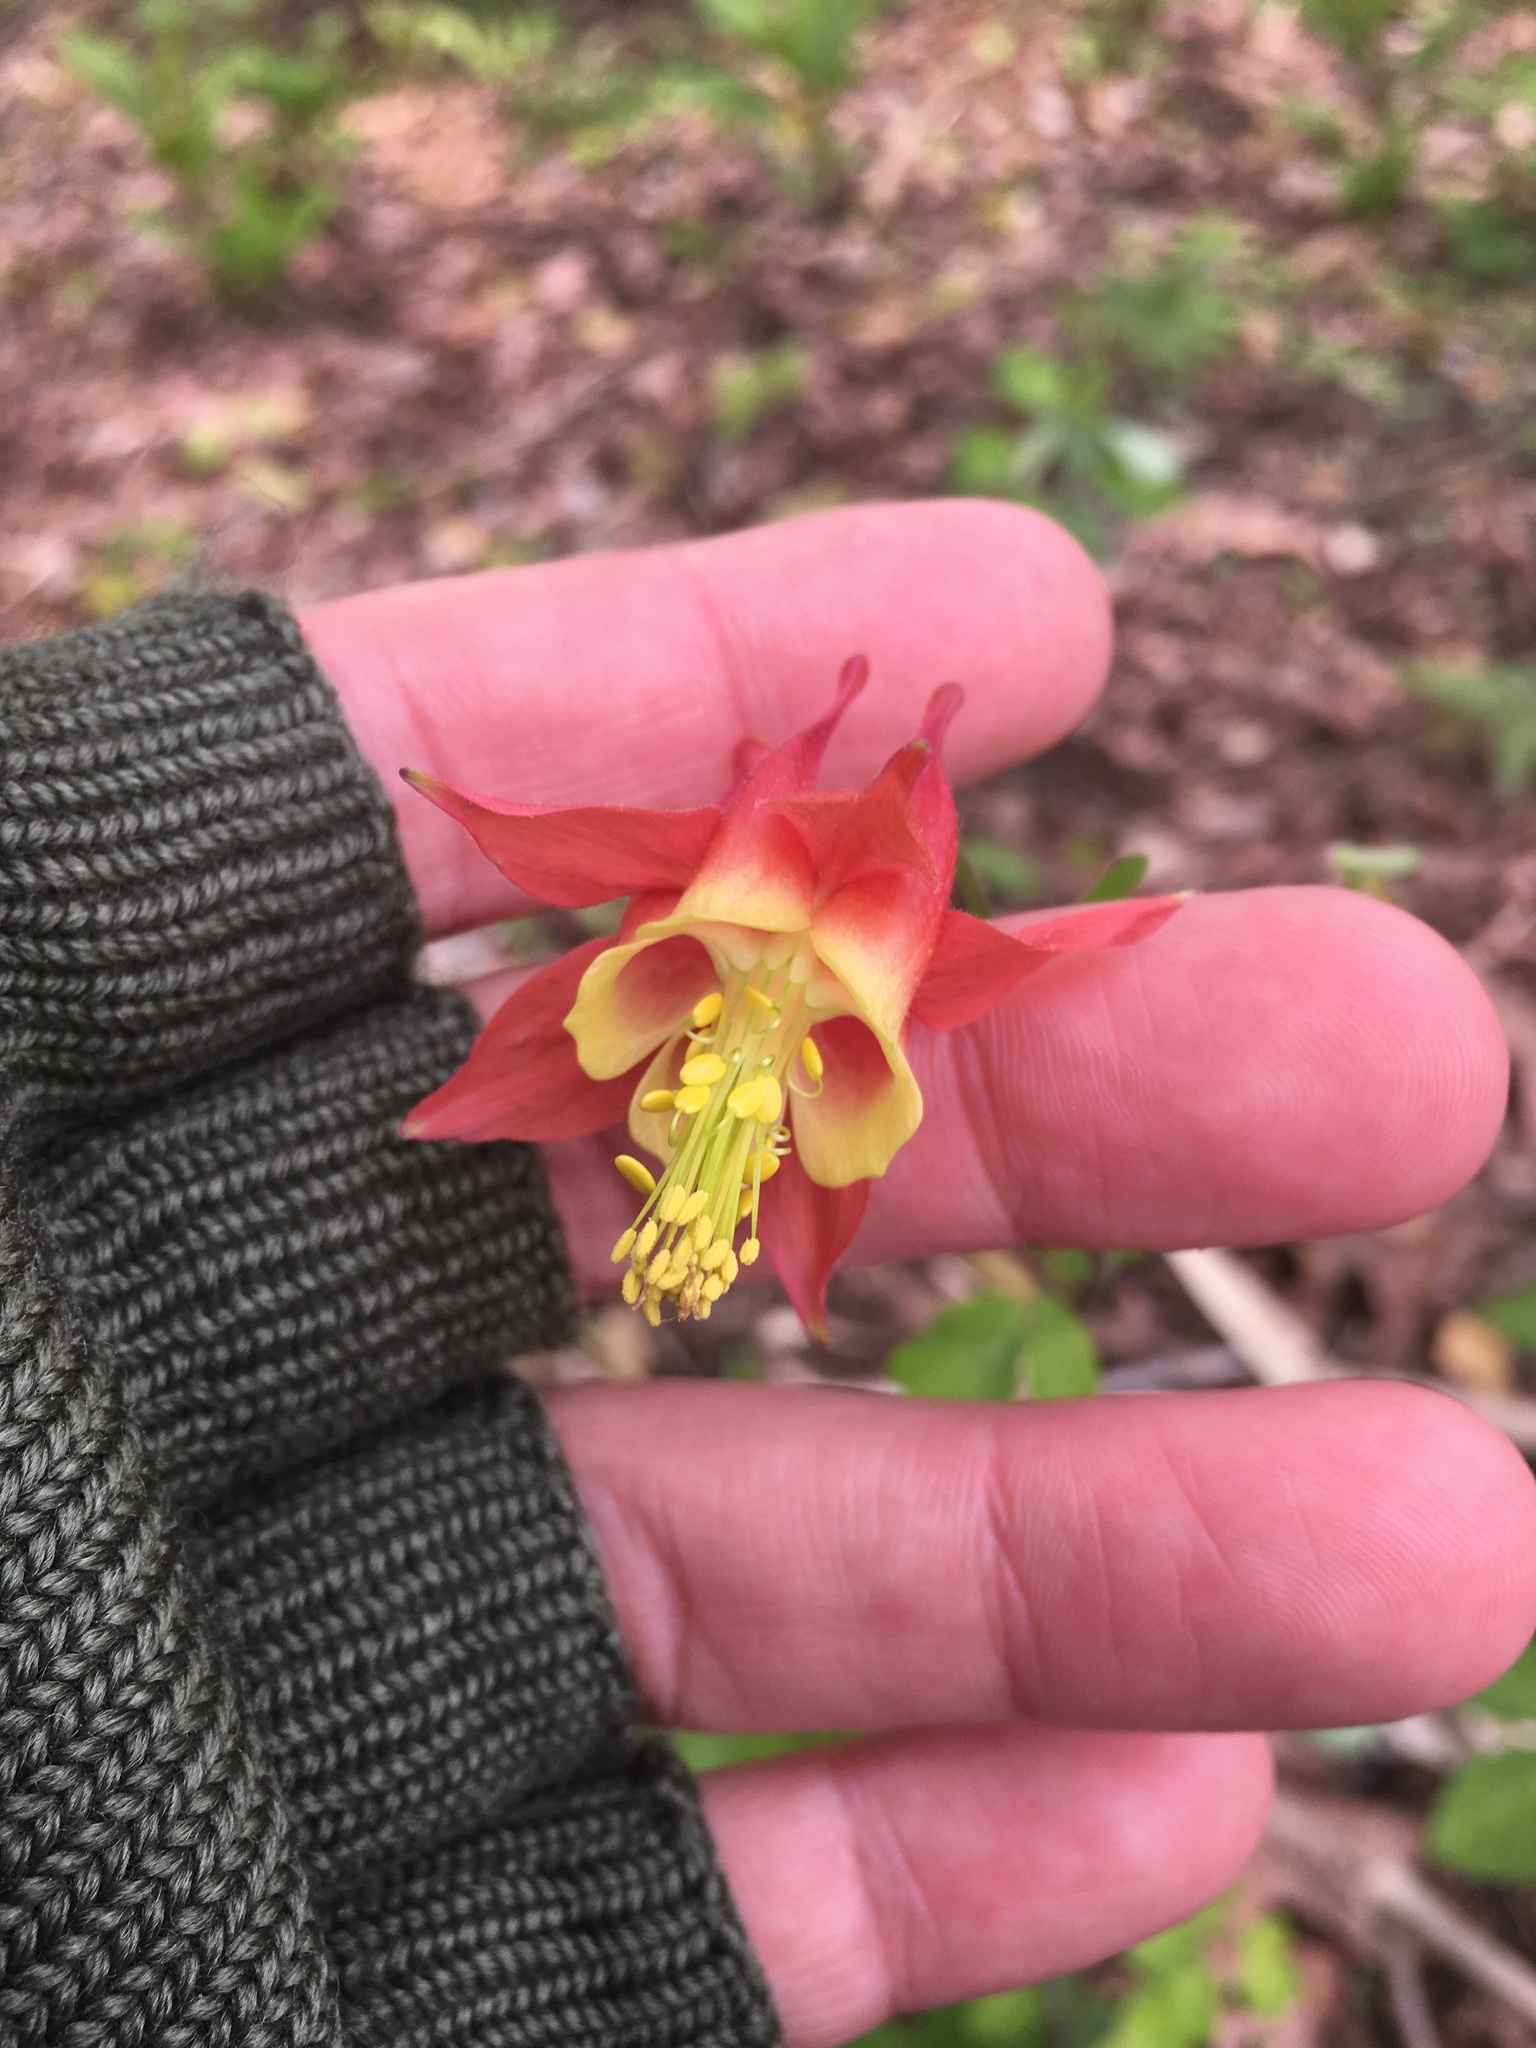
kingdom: Plantae
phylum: Tracheophyta
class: Magnoliopsida
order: Ranunculales
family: Ranunculaceae
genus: Aquilegia
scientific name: Aquilegia canadensis
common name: American columbine
